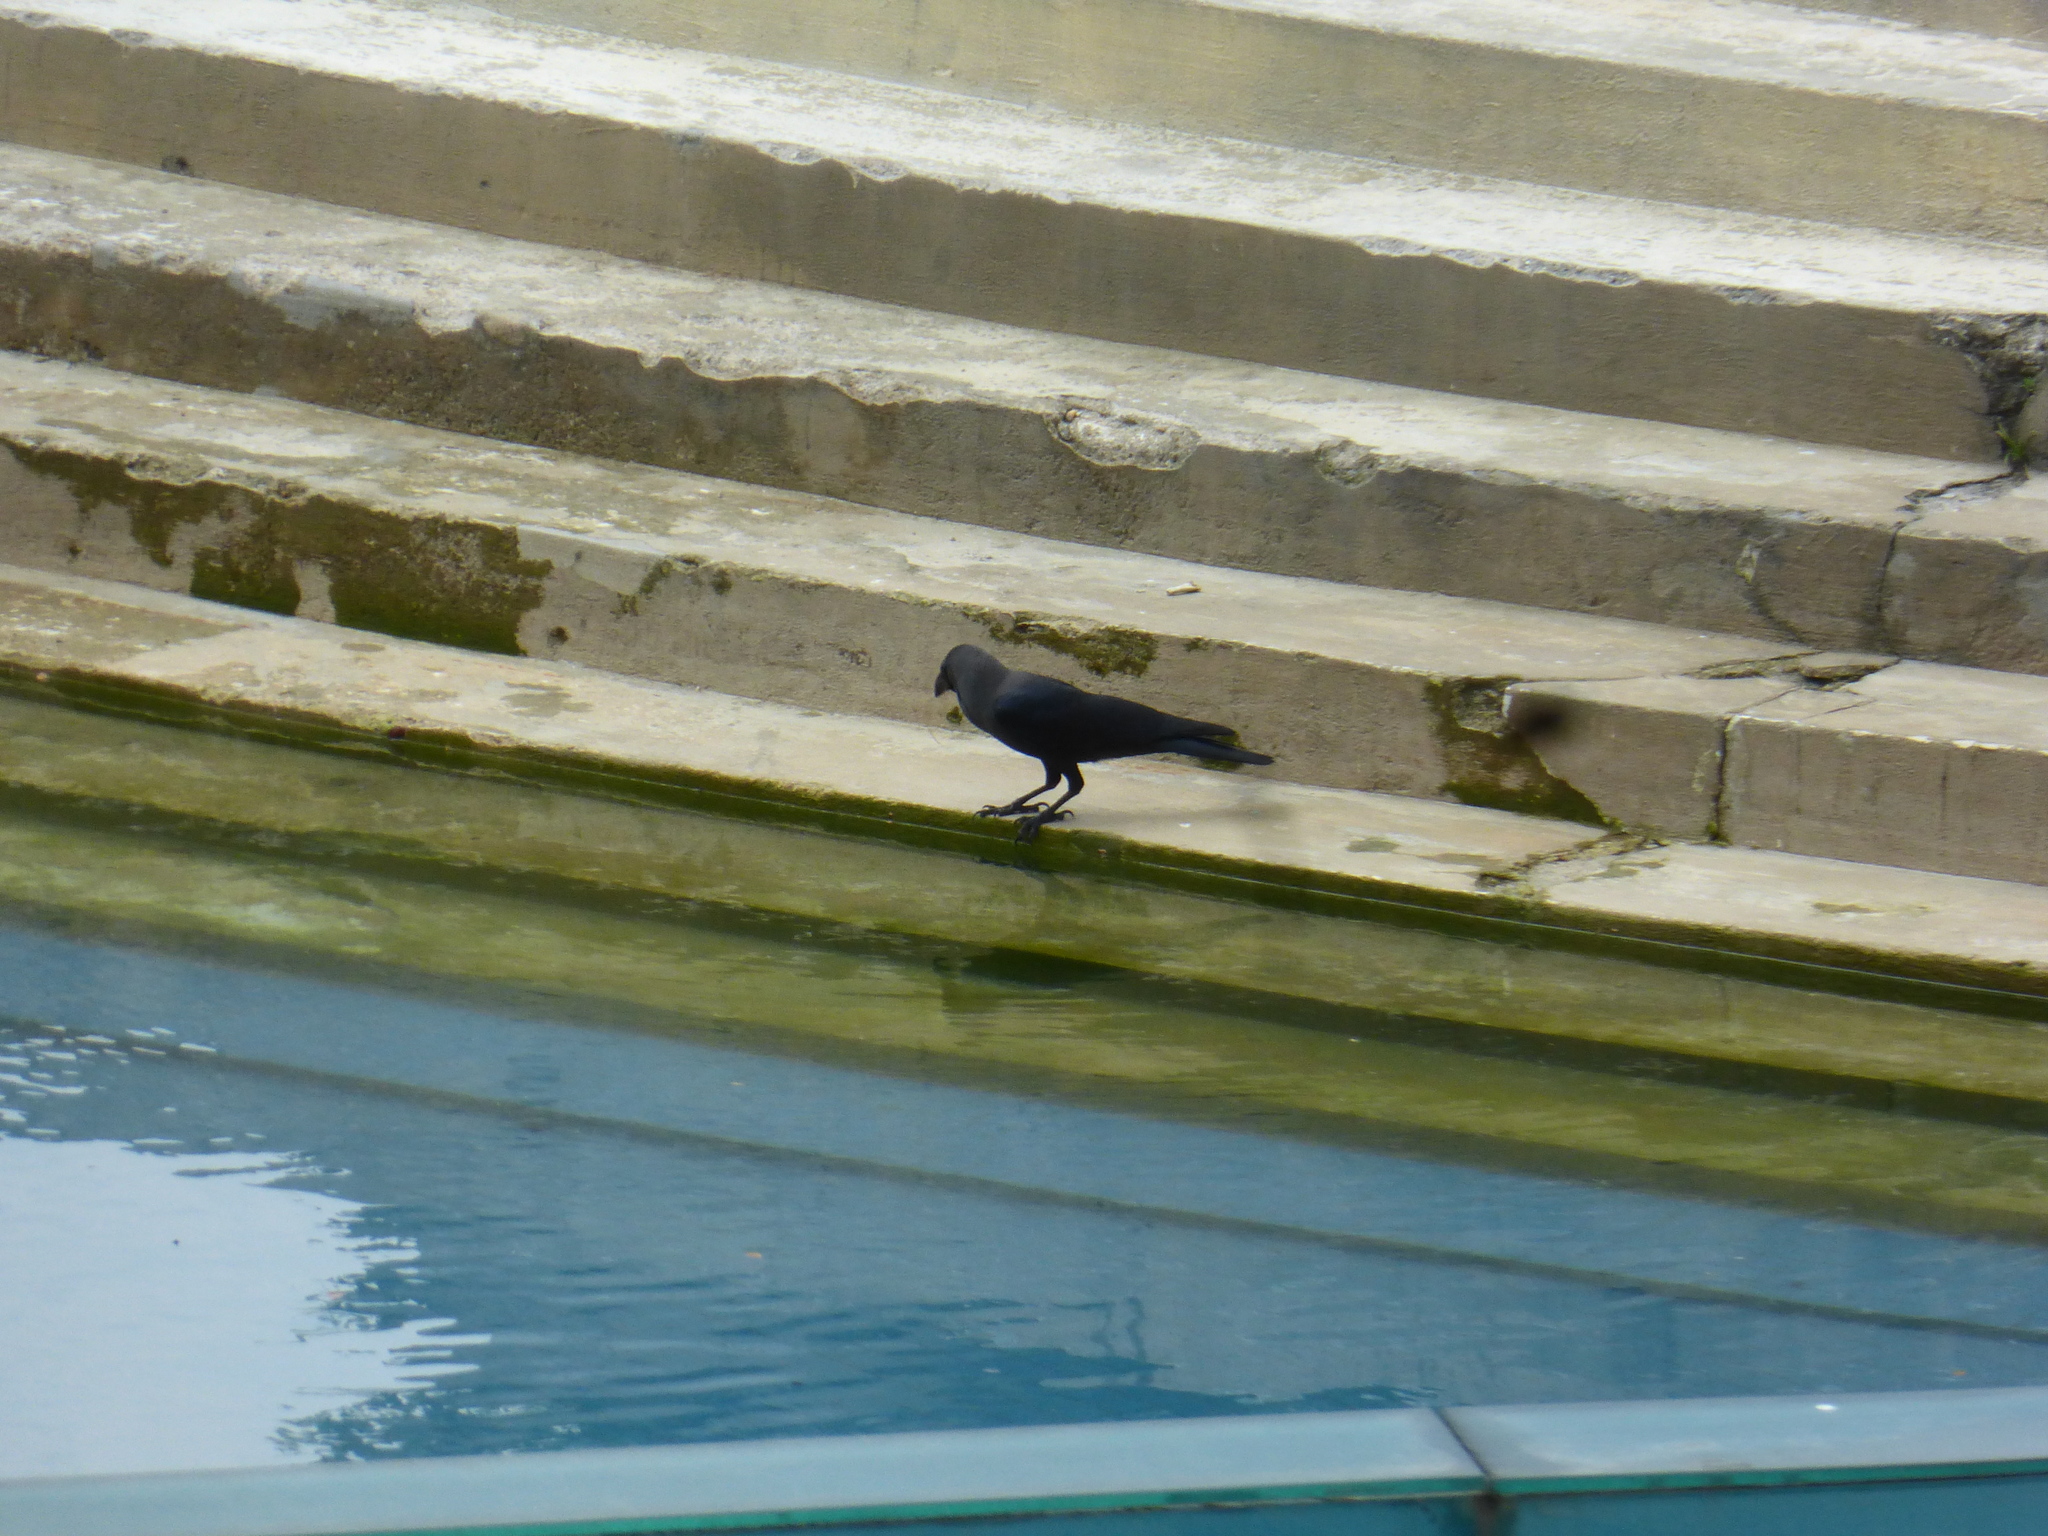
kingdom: Animalia
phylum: Chordata
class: Aves
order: Passeriformes
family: Corvidae
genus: Corvus
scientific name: Corvus splendens
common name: House crow
